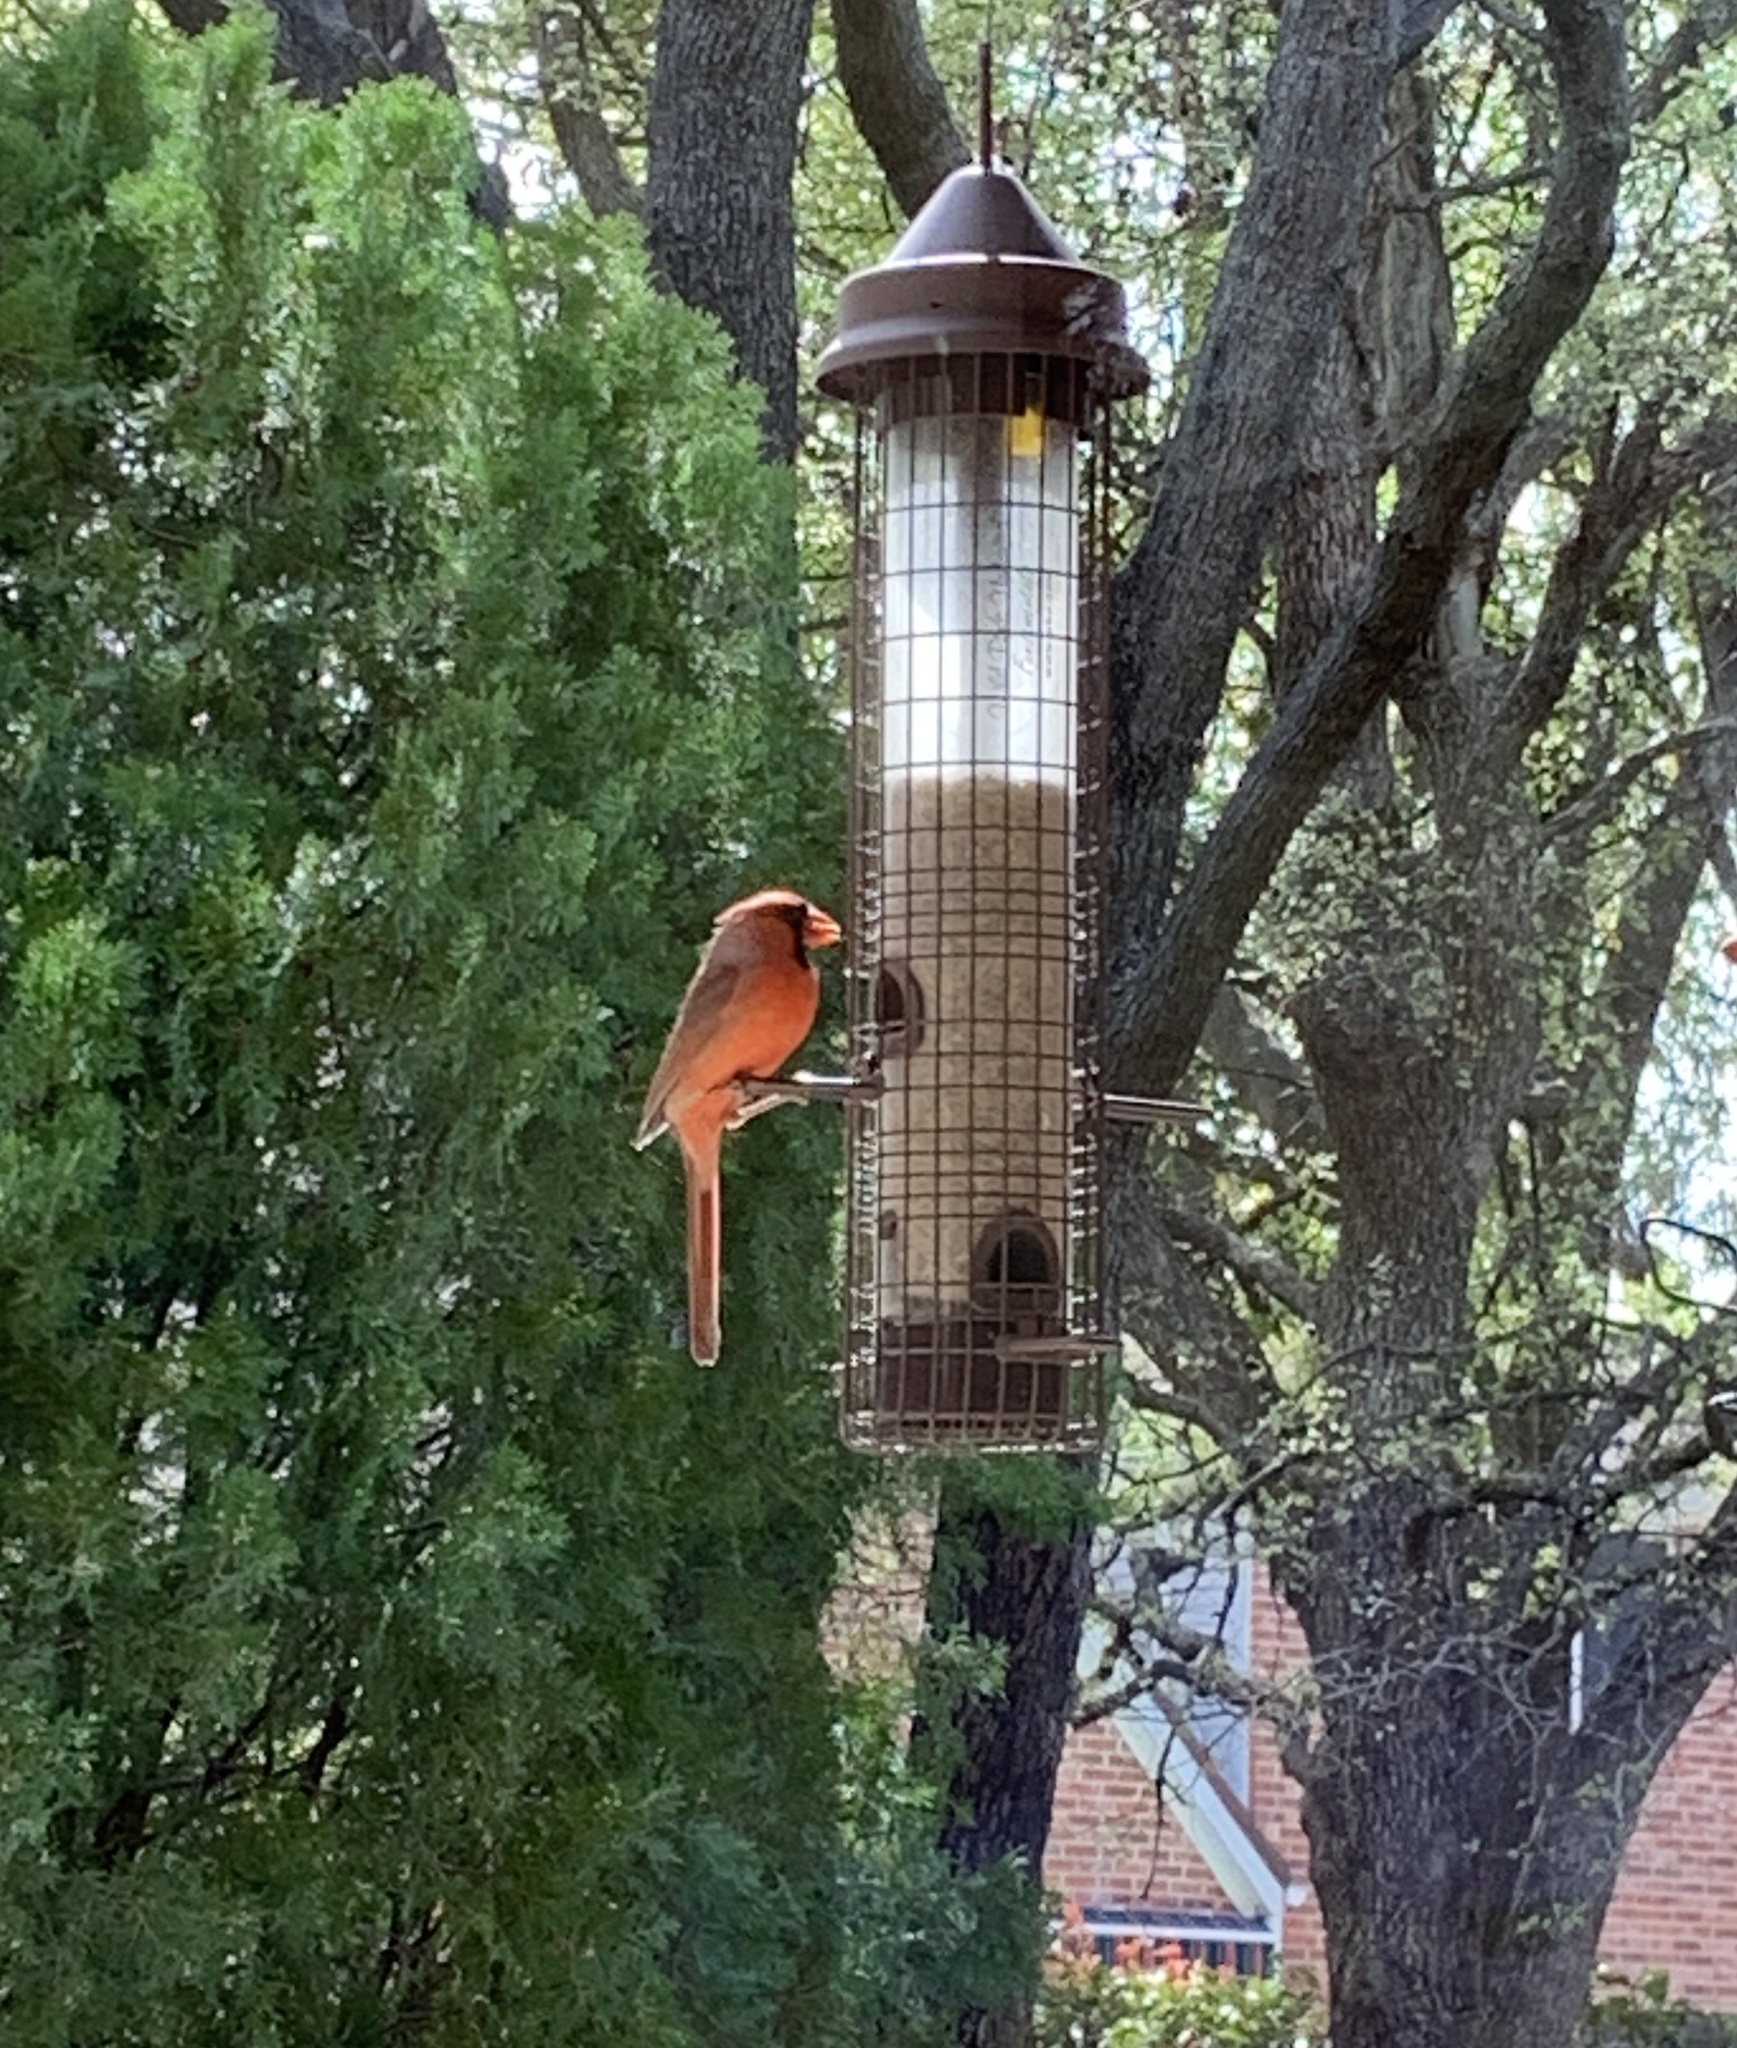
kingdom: Animalia
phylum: Chordata
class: Aves
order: Passeriformes
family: Cardinalidae
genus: Cardinalis
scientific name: Cardinalis cardinalis
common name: Northern cardinal
